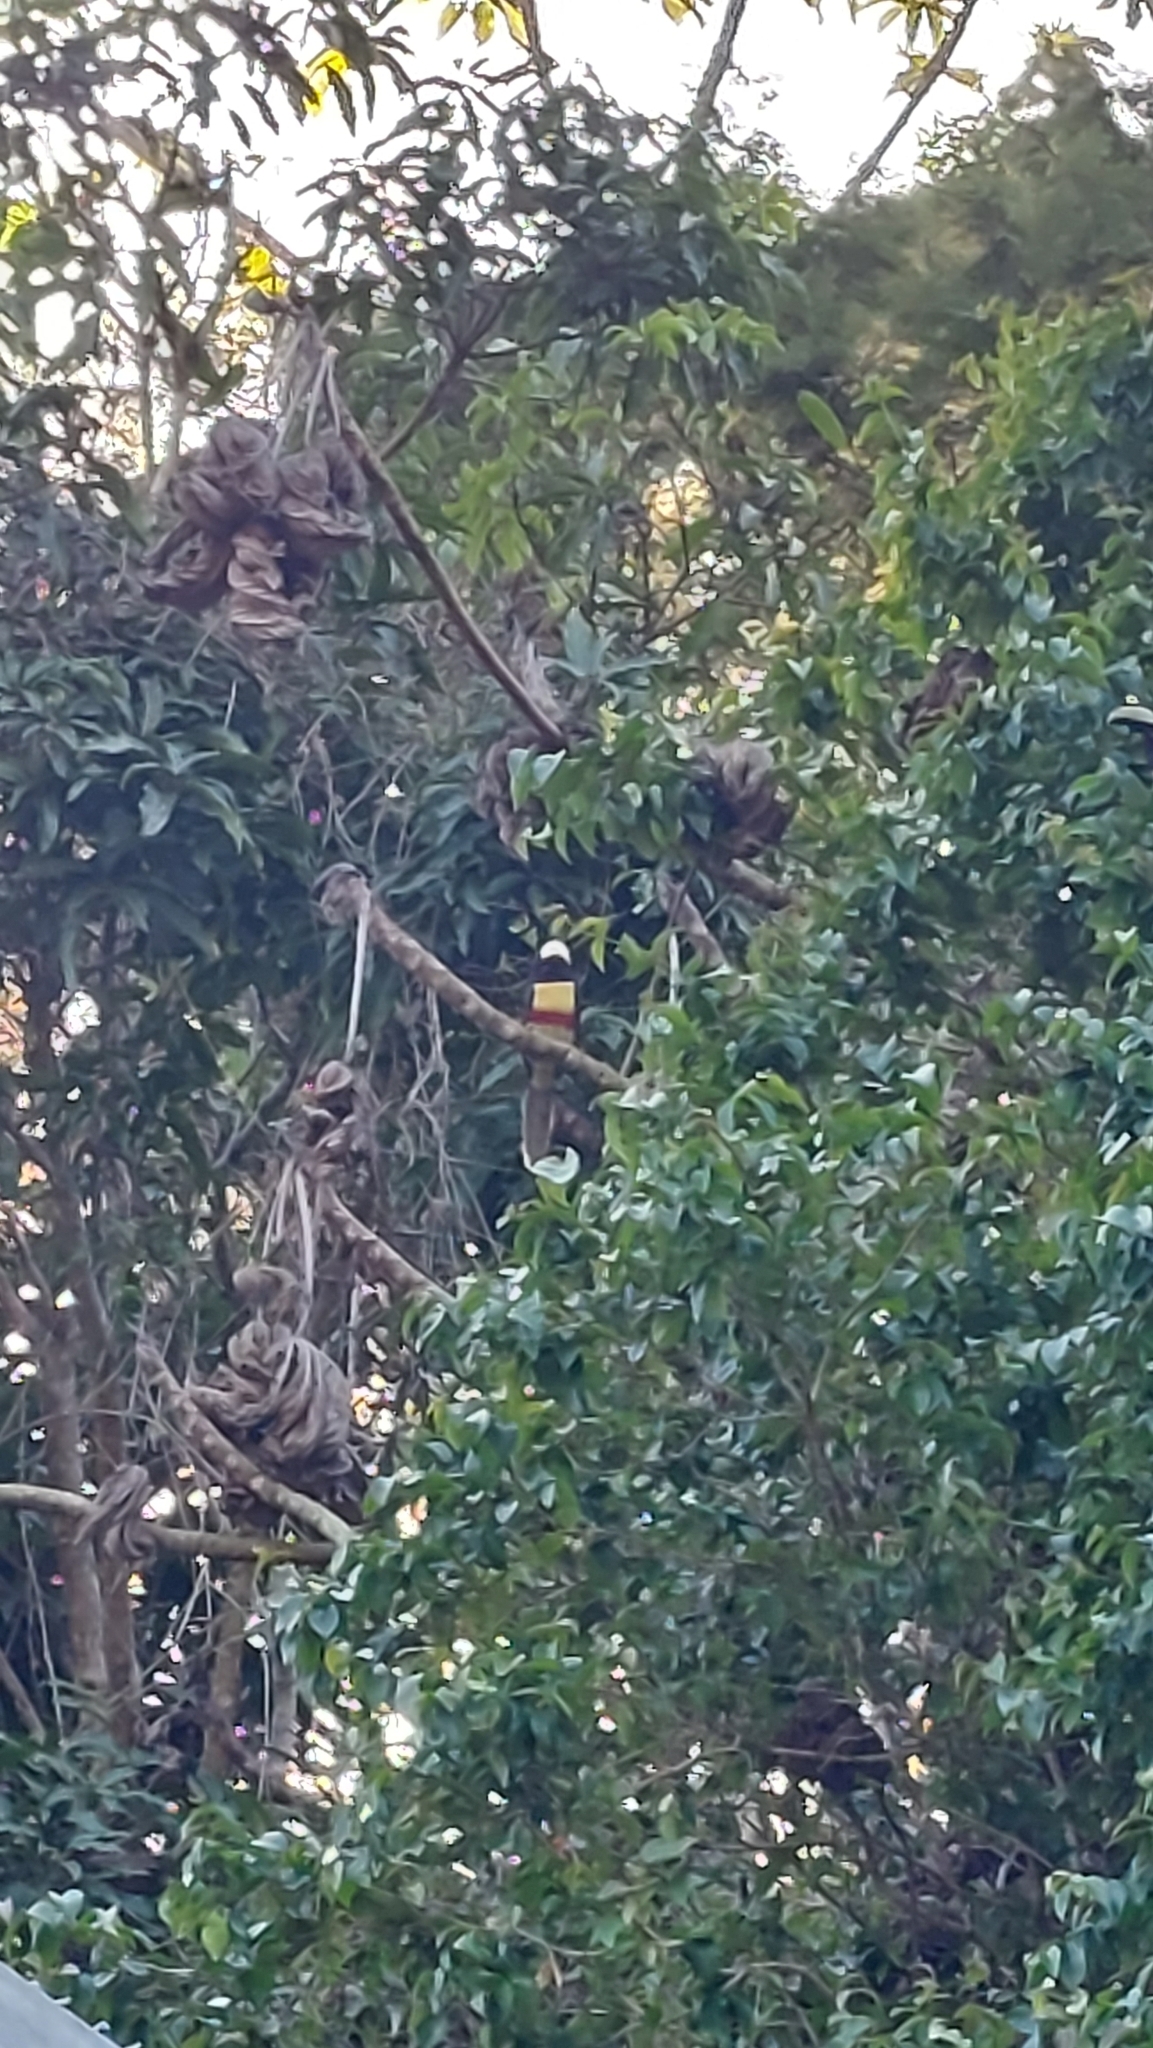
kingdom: Animalia
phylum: Chordata
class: Aves
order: Piciformes
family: Ramphastidae
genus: Pteroglossus
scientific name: Pteroglossus aracari
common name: Black-necked aracari
